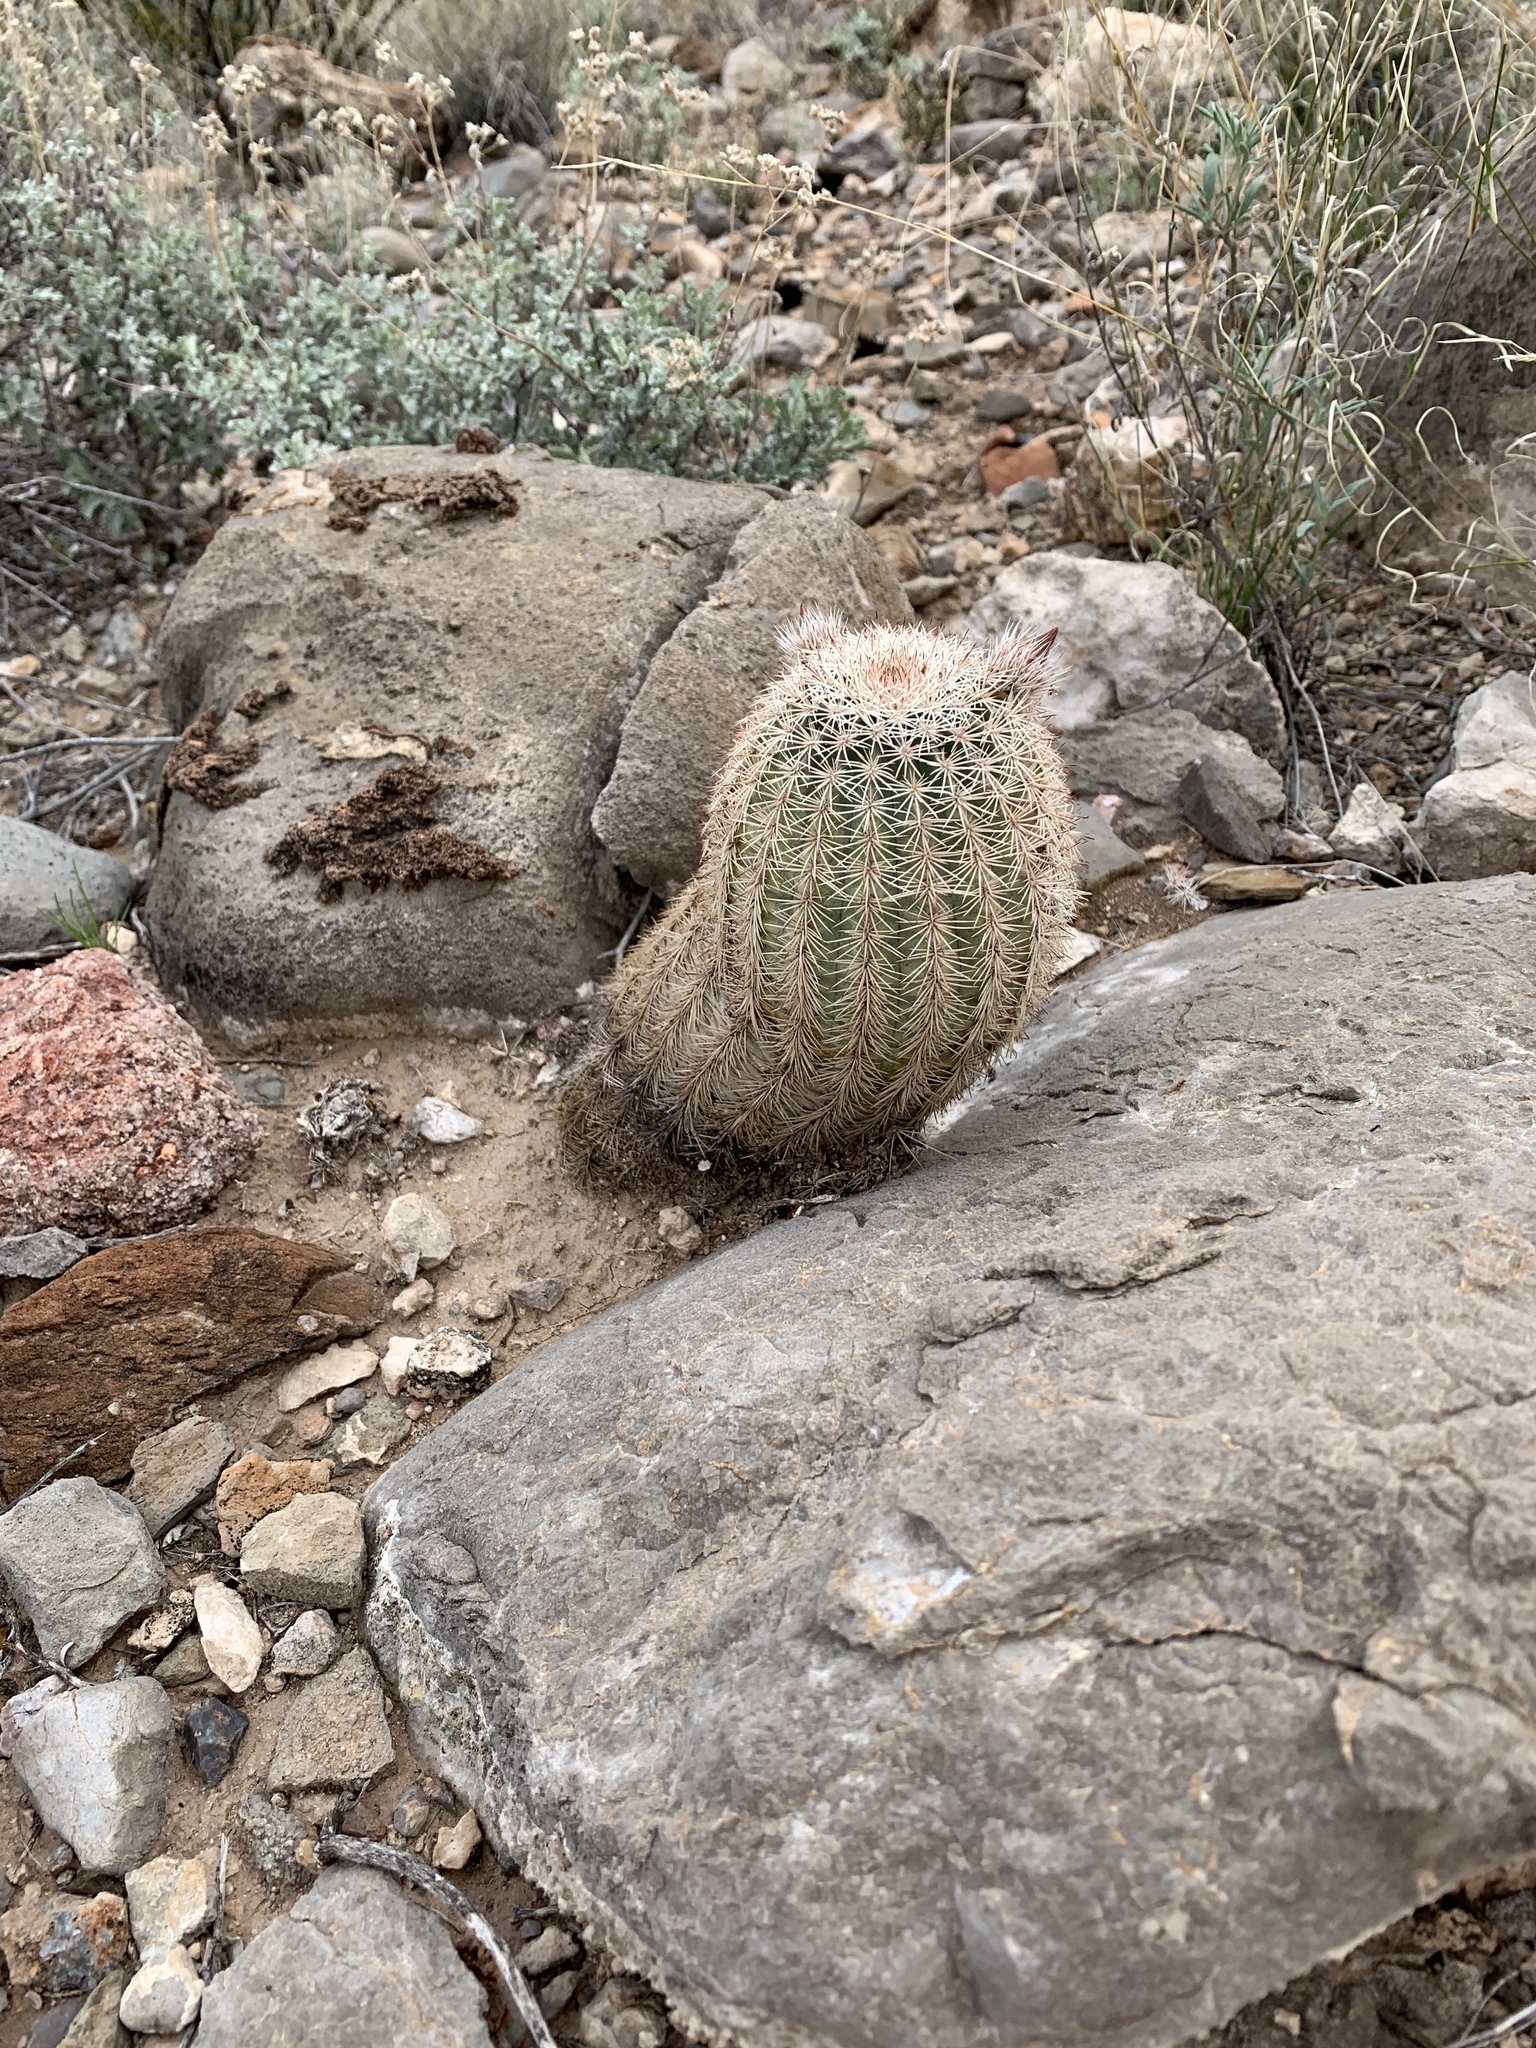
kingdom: Plantae
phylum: Tracheophyta
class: Magnoliopsida
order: Caryophyllales
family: Cactaceae
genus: Echinocereus
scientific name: Echinocereus dasyacanthus
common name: Spiny hedgehog cactus
